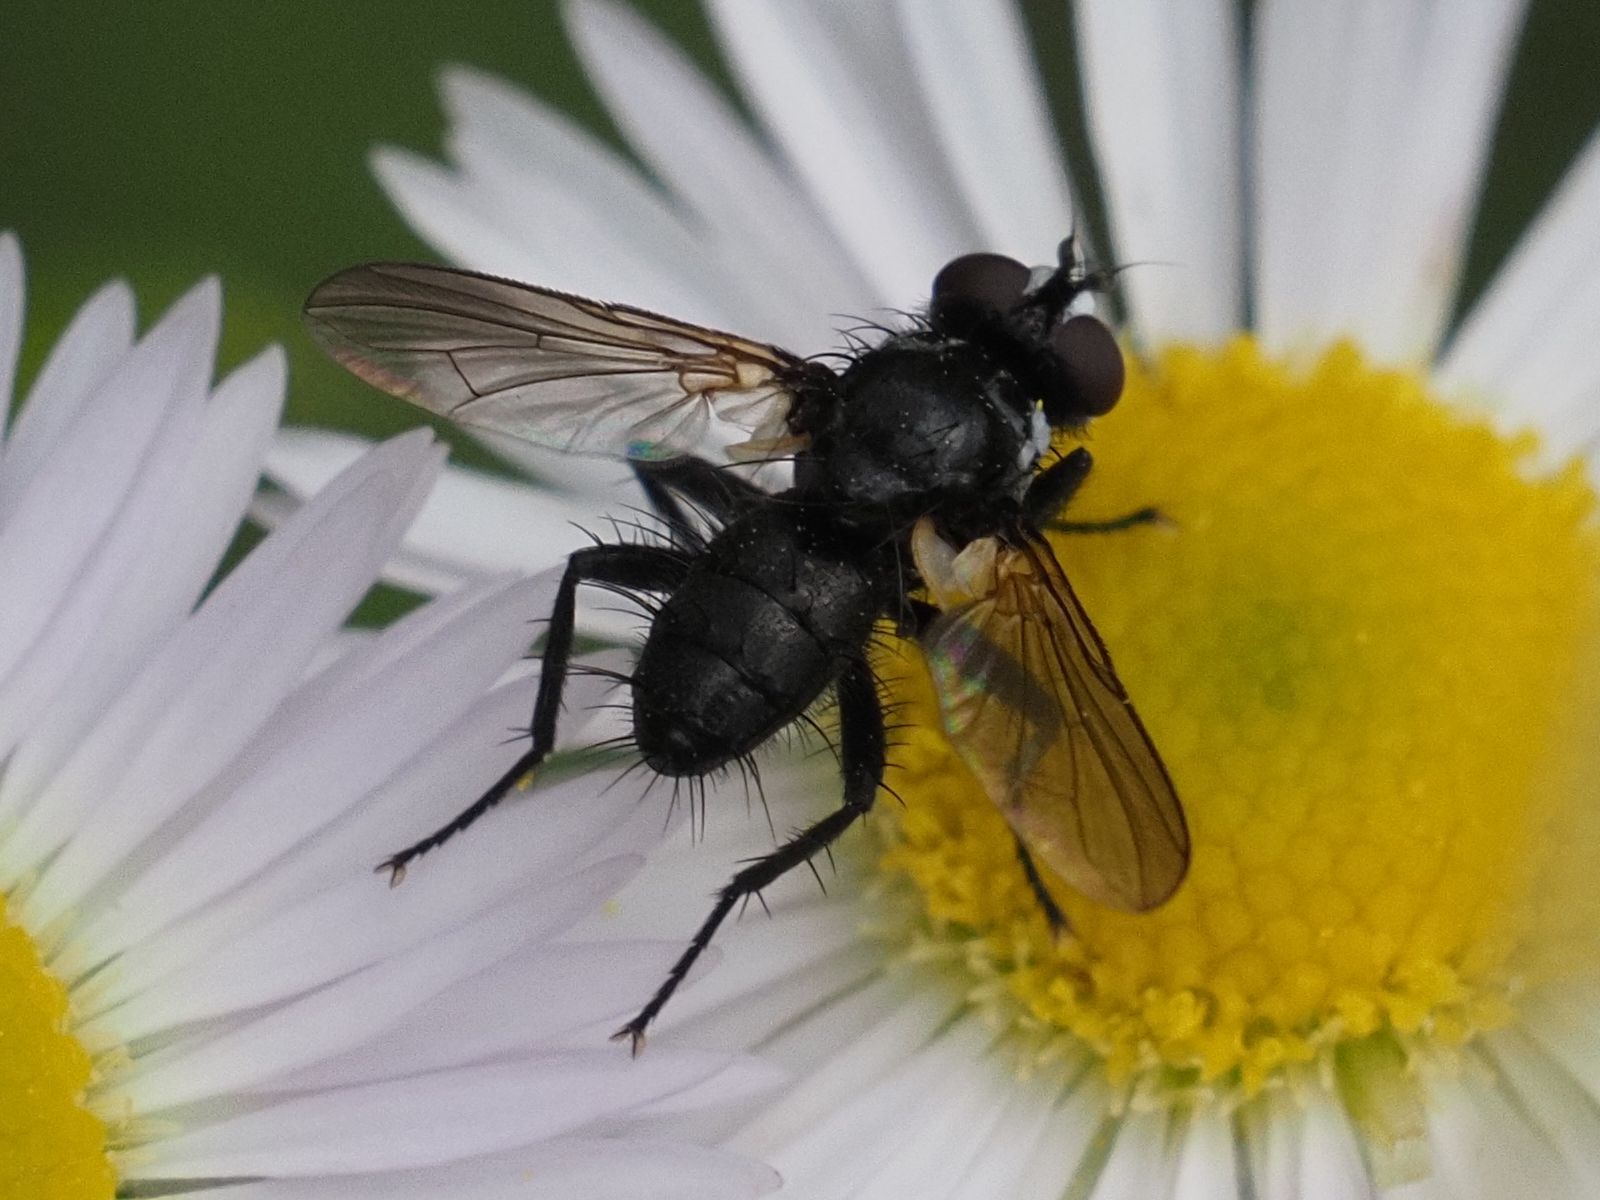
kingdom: Animalia
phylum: Arthropoda
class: Insecta
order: Diptera
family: Tachinidae
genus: Phania
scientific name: Phania funesta
